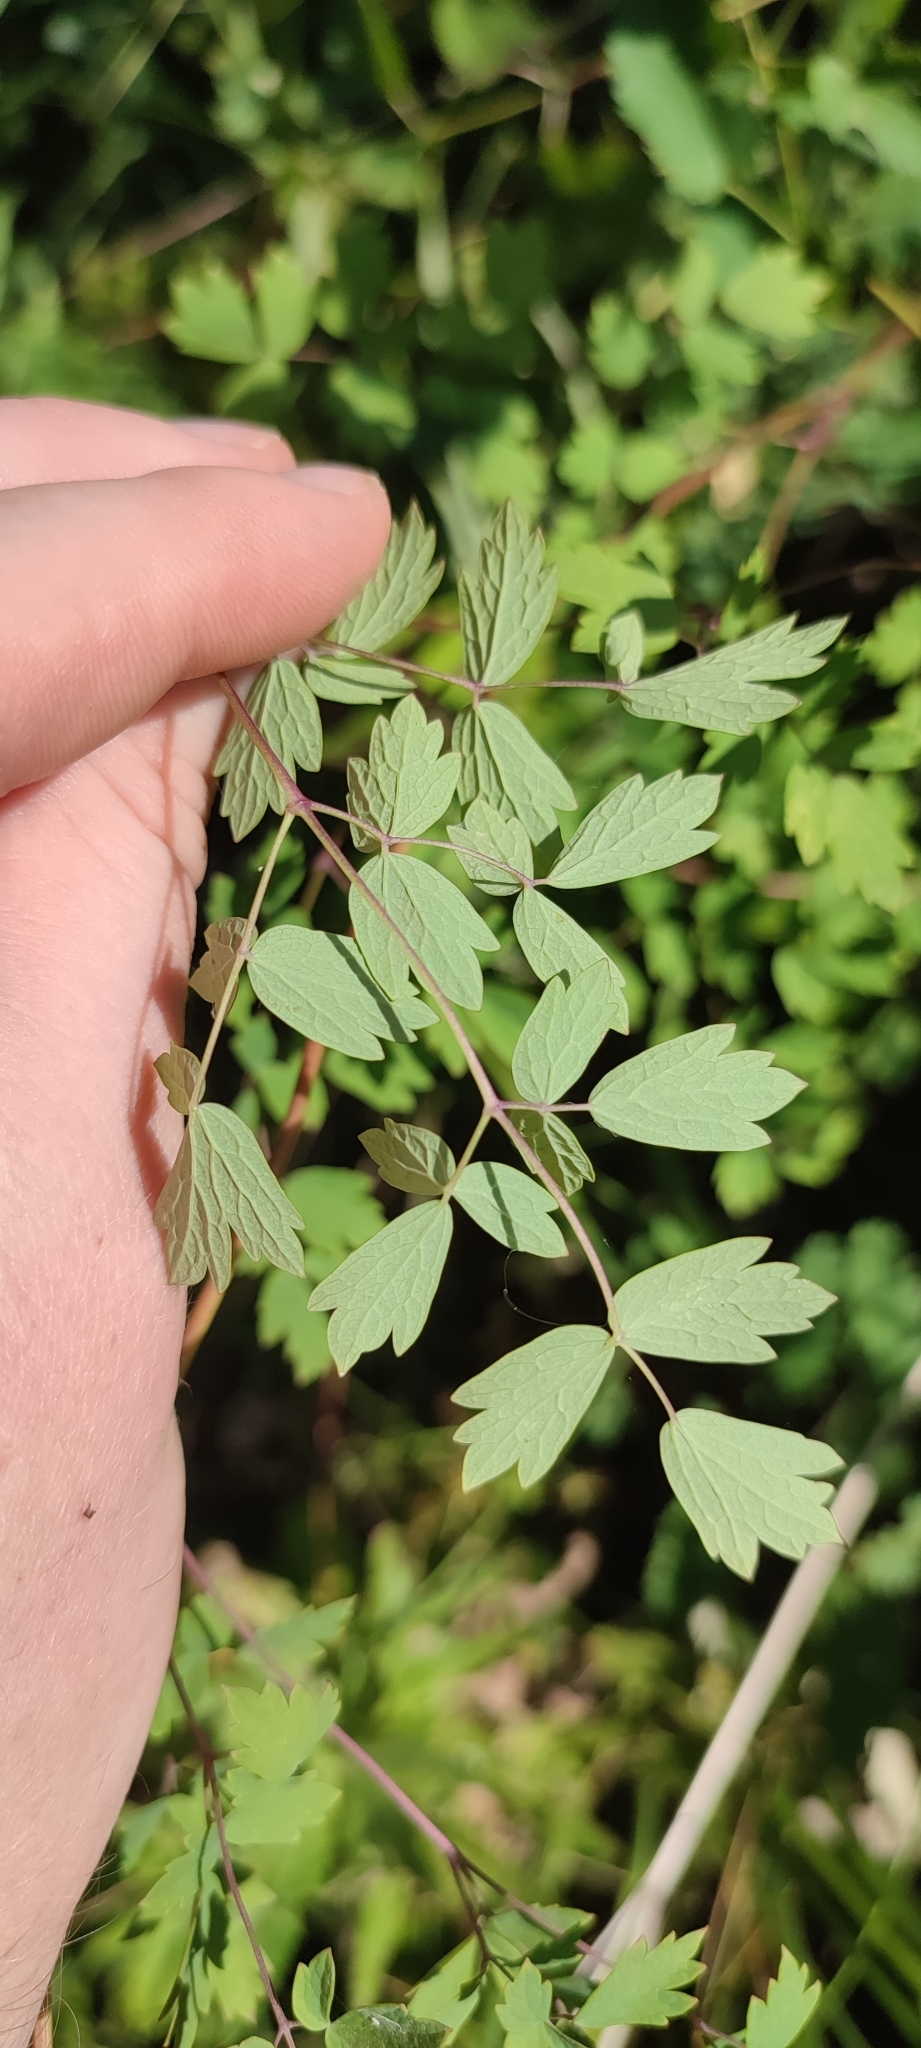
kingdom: Plantae
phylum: Tracheophyta
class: Magnoliopsida
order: Ranunculales
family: Ranunculaceae
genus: Thalictrum
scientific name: Thalictrum minus
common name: Lesser meadow-rue
